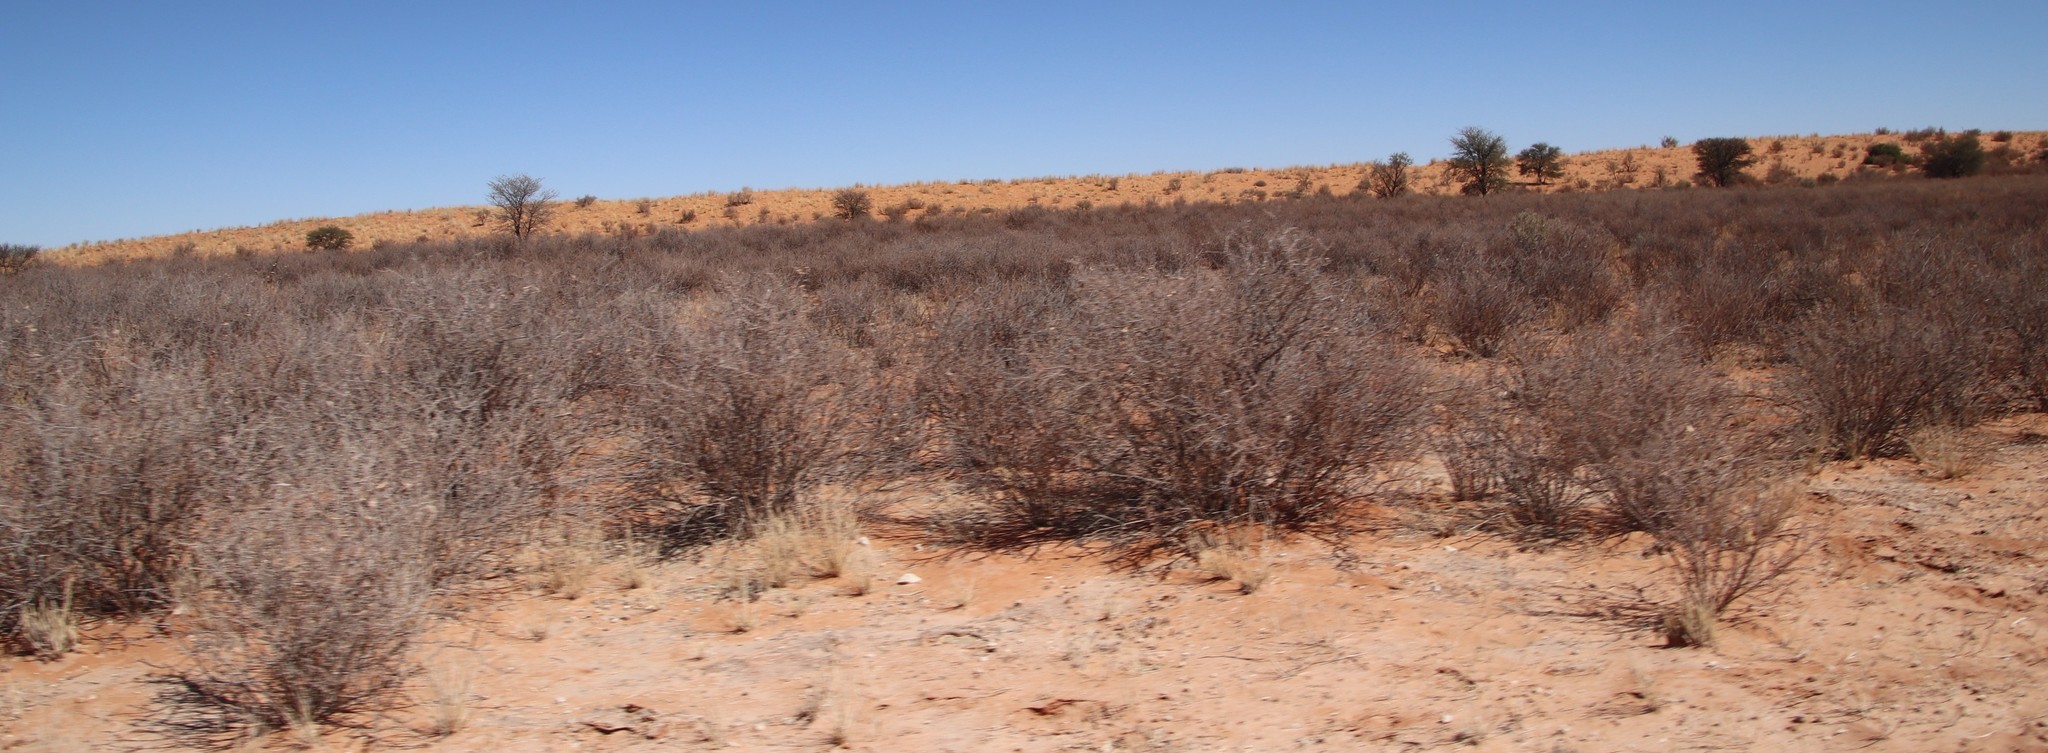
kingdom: Plantae
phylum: Tracheophyta
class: Magnoliopsida
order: Lamiales
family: Bignoniaceae
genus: Rhigozum
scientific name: Rhigozum trichotomum
